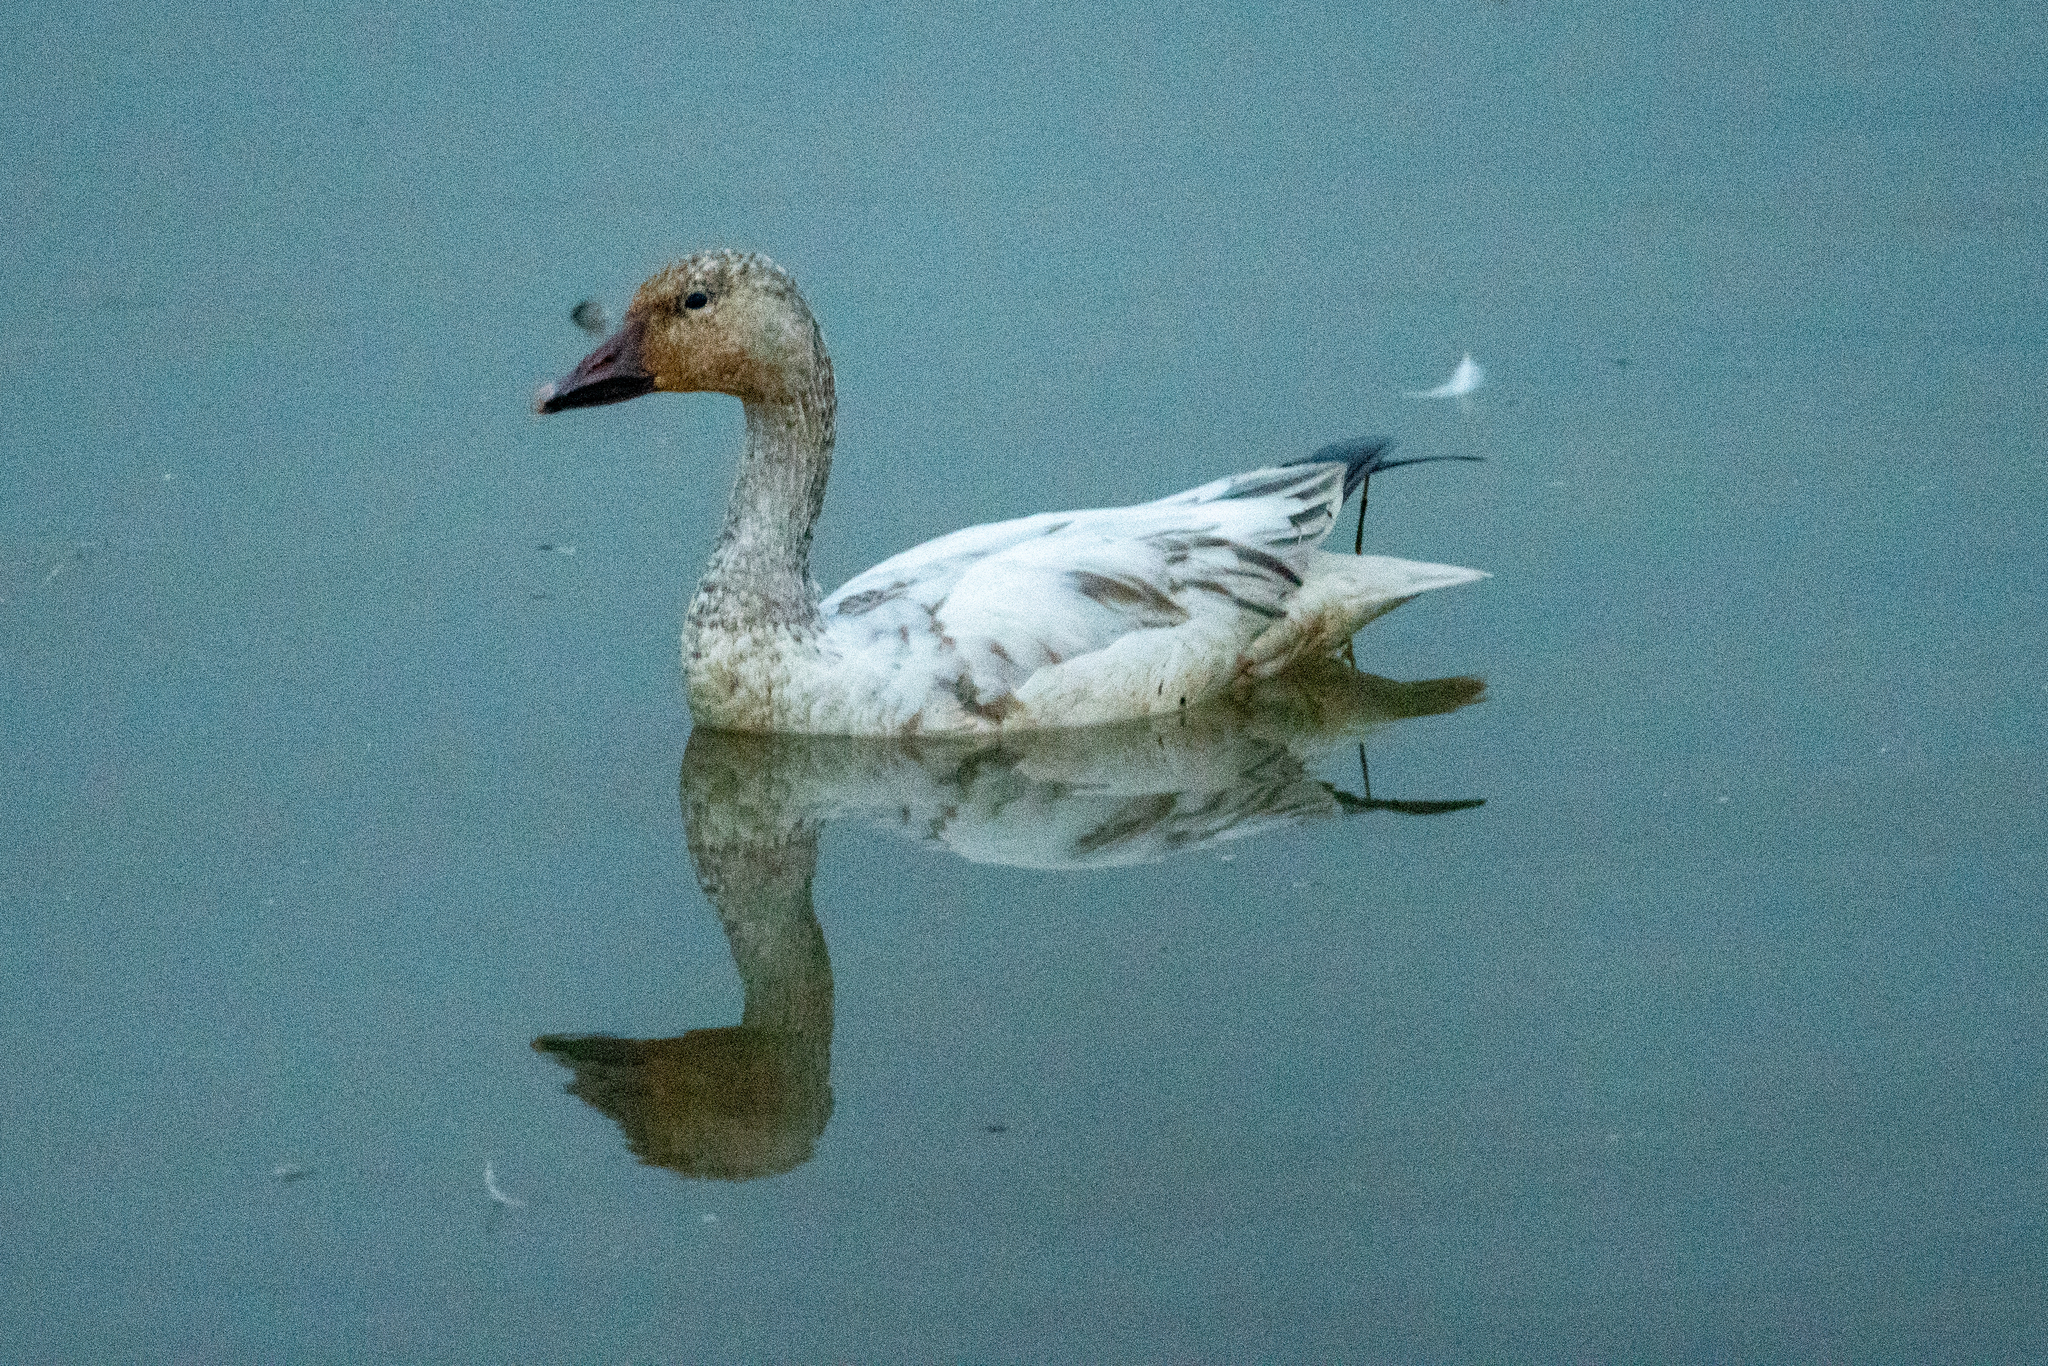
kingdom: Animalia
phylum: Chordata
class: Aves
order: Anseriformes
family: Anatidae
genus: Anser
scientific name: Anser caerulescens
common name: Snow goose
